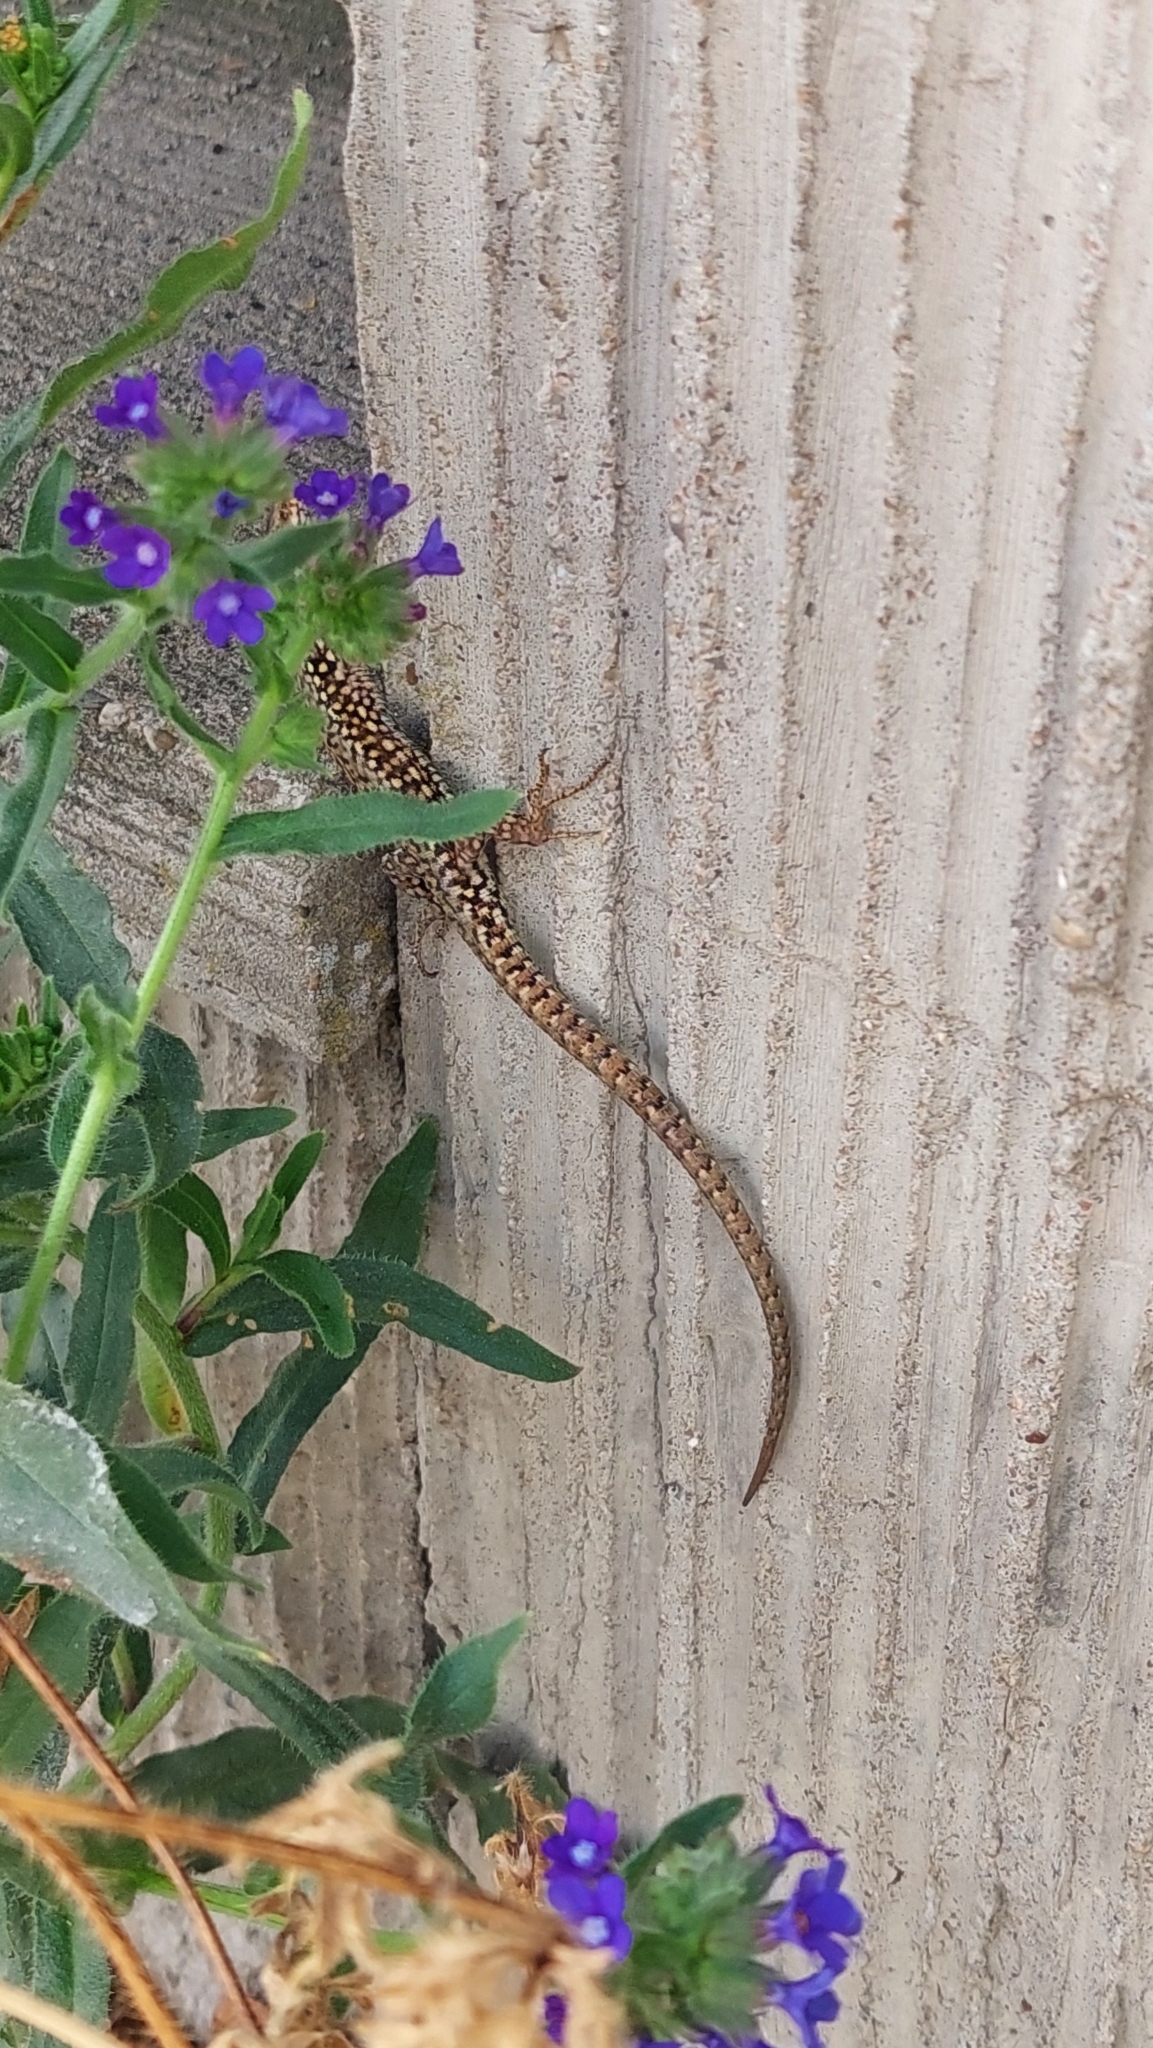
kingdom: Animalia
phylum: Chordata
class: Squamata
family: Lacertidae
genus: Podarcis
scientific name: Podarcis muralis
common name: Common wall lizard
